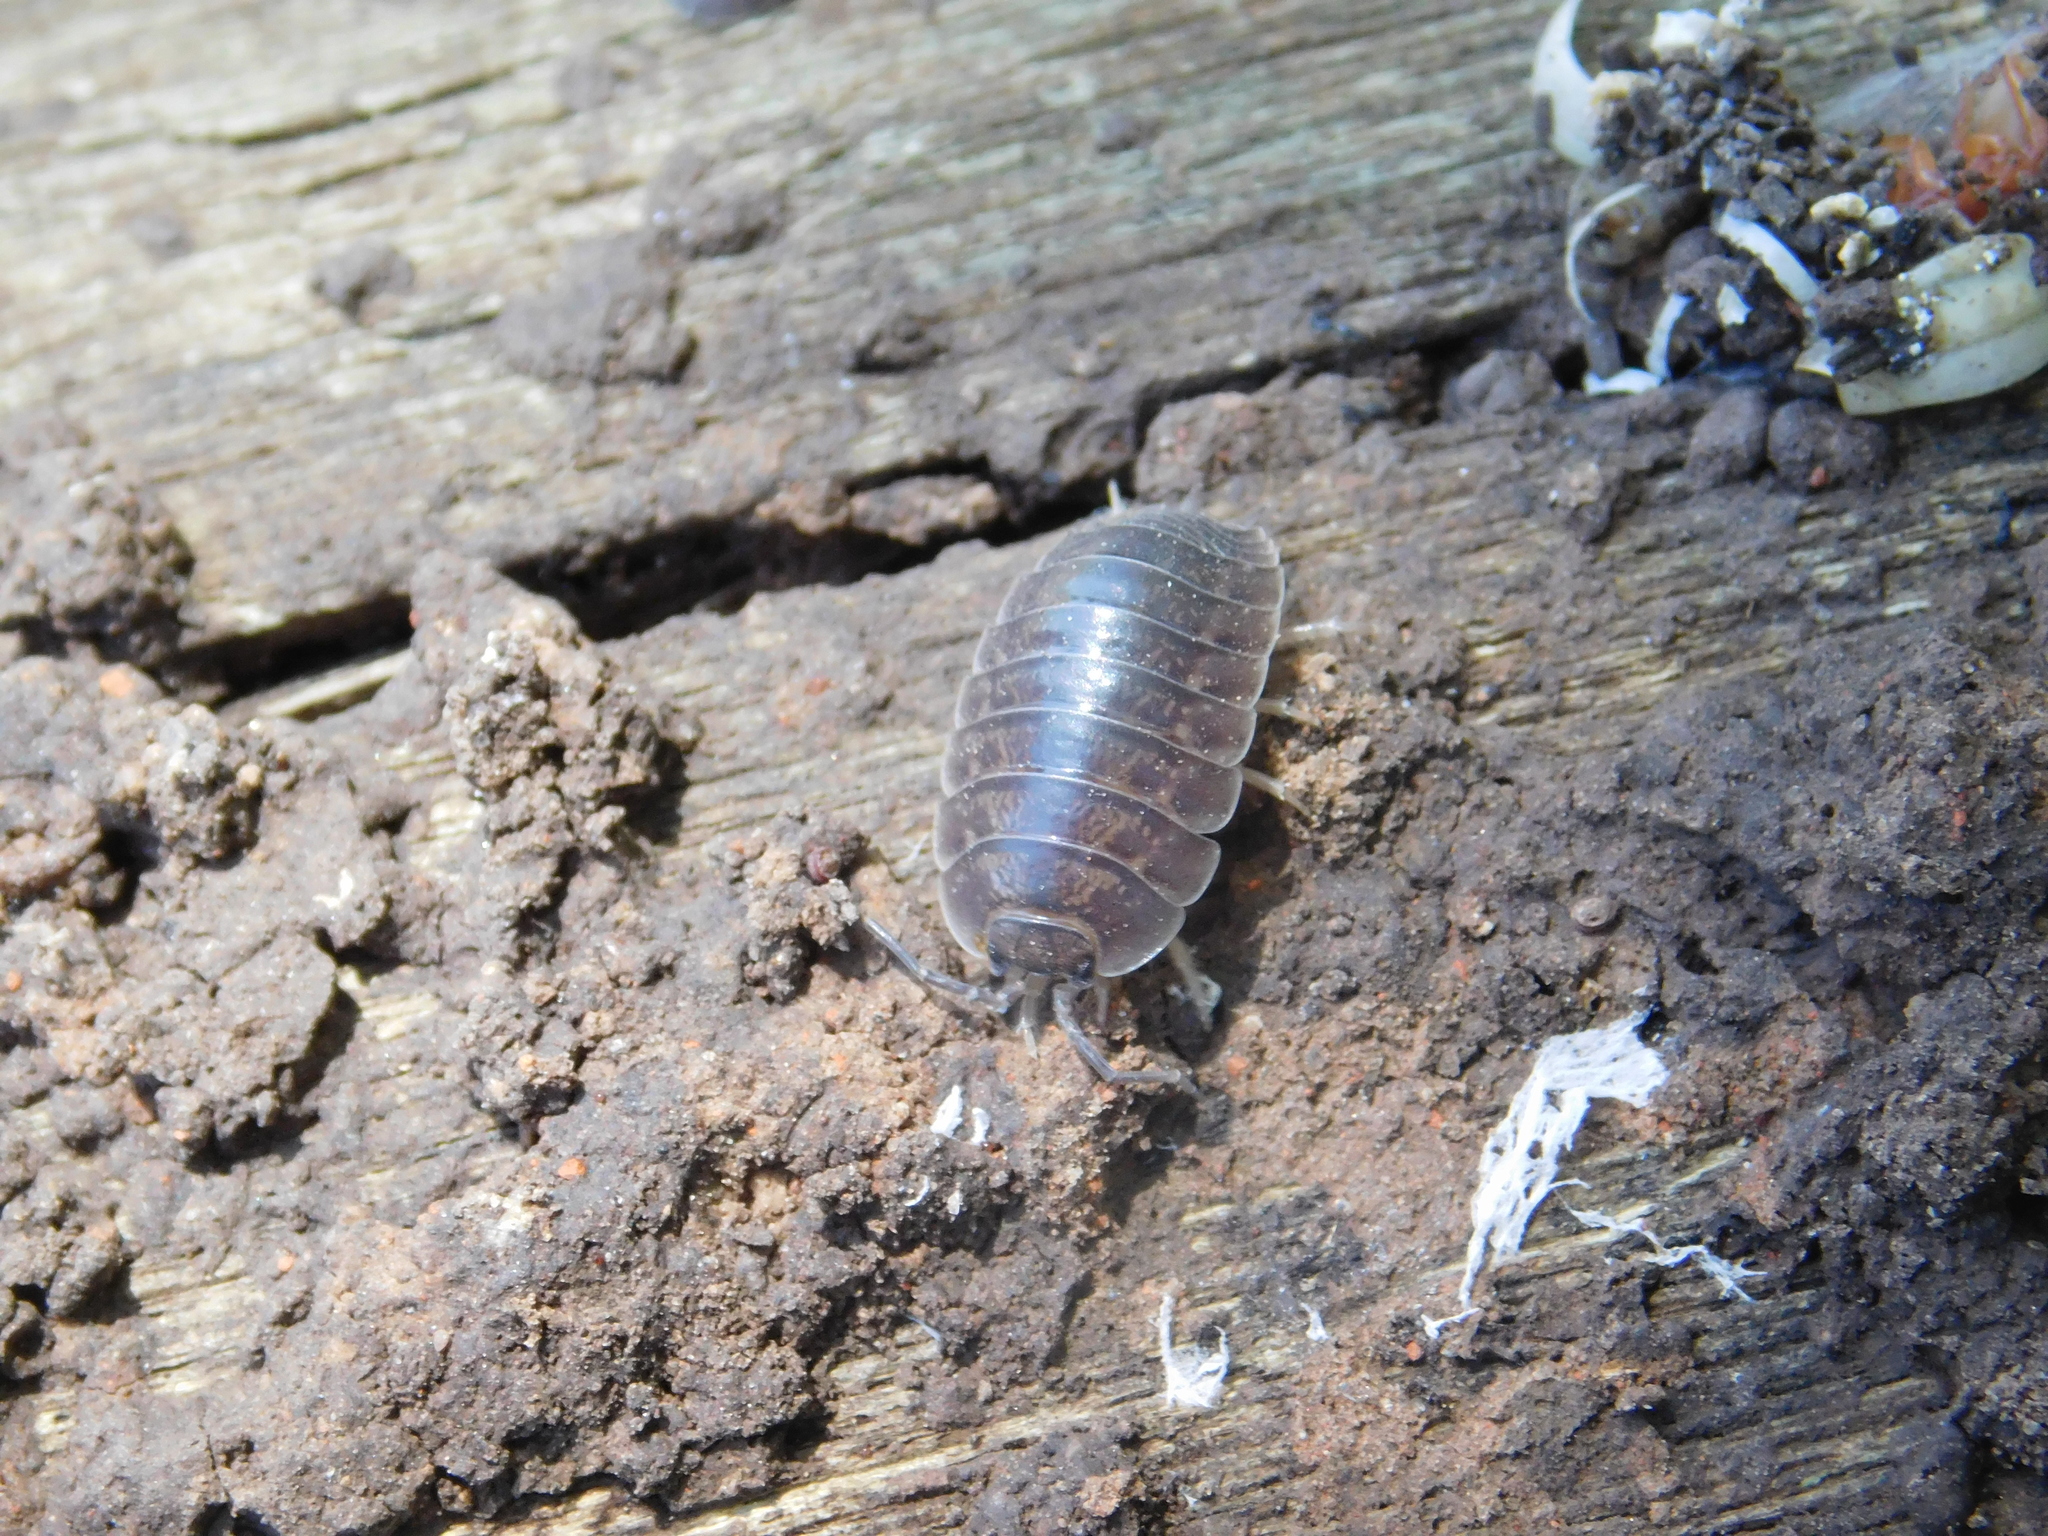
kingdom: Animalia
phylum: Arthropoda
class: Malacostraca
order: Isopoda
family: Porcellionidae
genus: Porcellio
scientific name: Porcellio laevis
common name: Swift woodlouse
